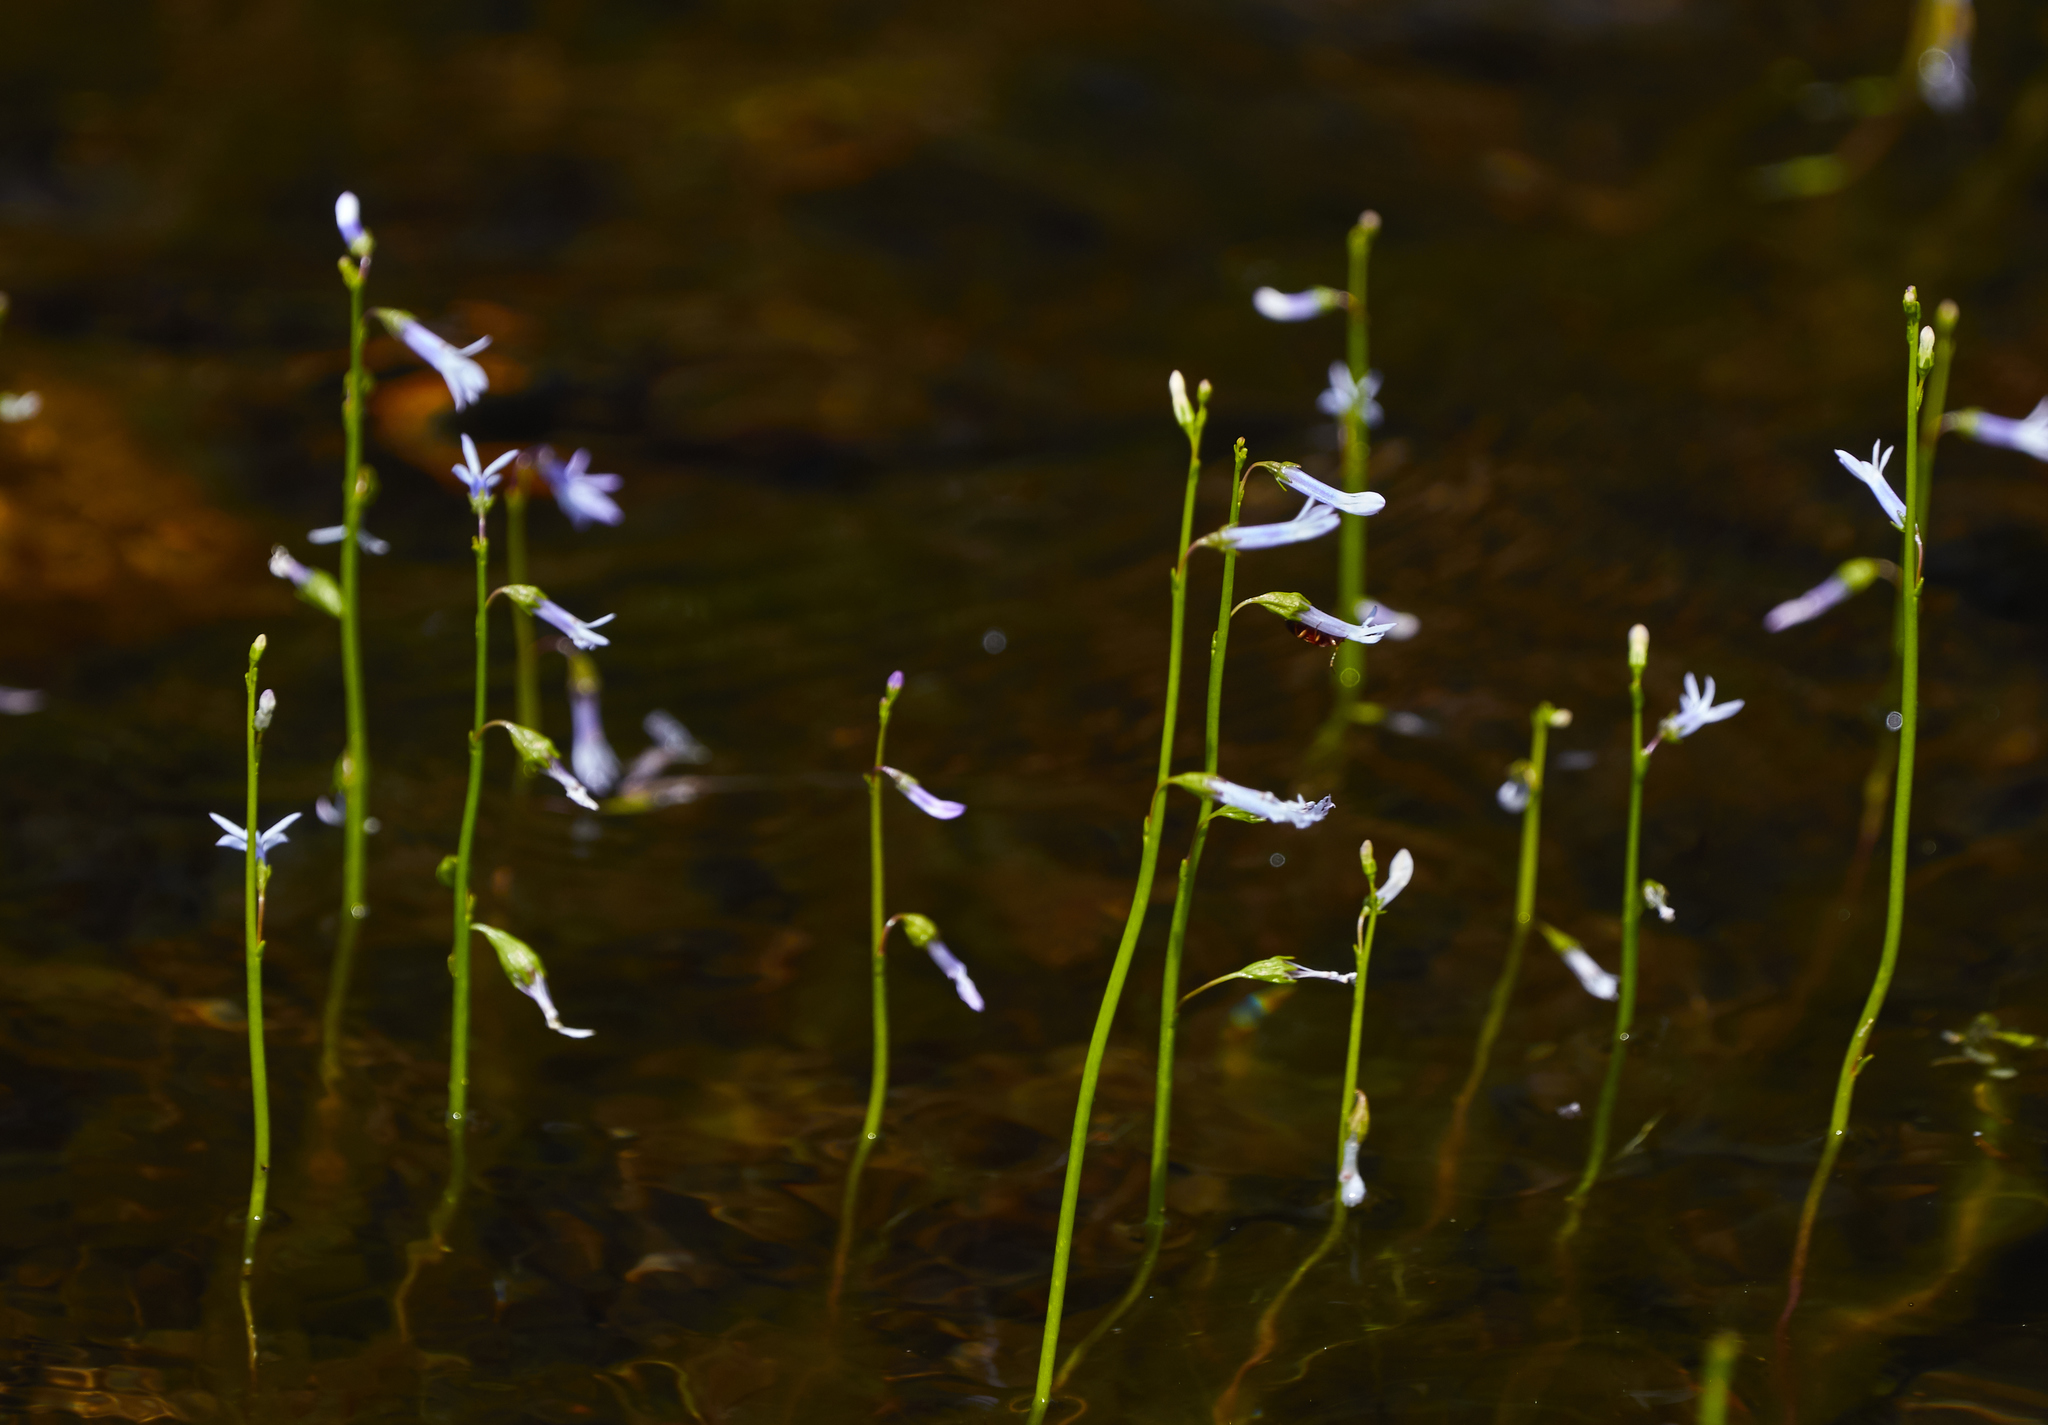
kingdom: Plantae
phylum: Tracheophyta
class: Magnoliopsida
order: Asterales
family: Campanulaceae
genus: Lobelia
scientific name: Lobelia dortmanna
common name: Water lobelia
